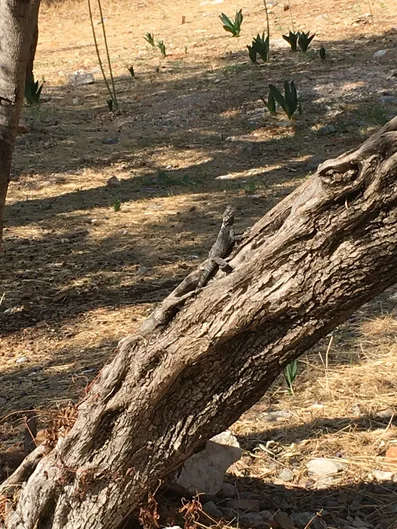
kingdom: Animalia
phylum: Chordata
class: Squamata
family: Agamidae
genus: Stellagama
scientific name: Stellagama stellio
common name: Starred agama
